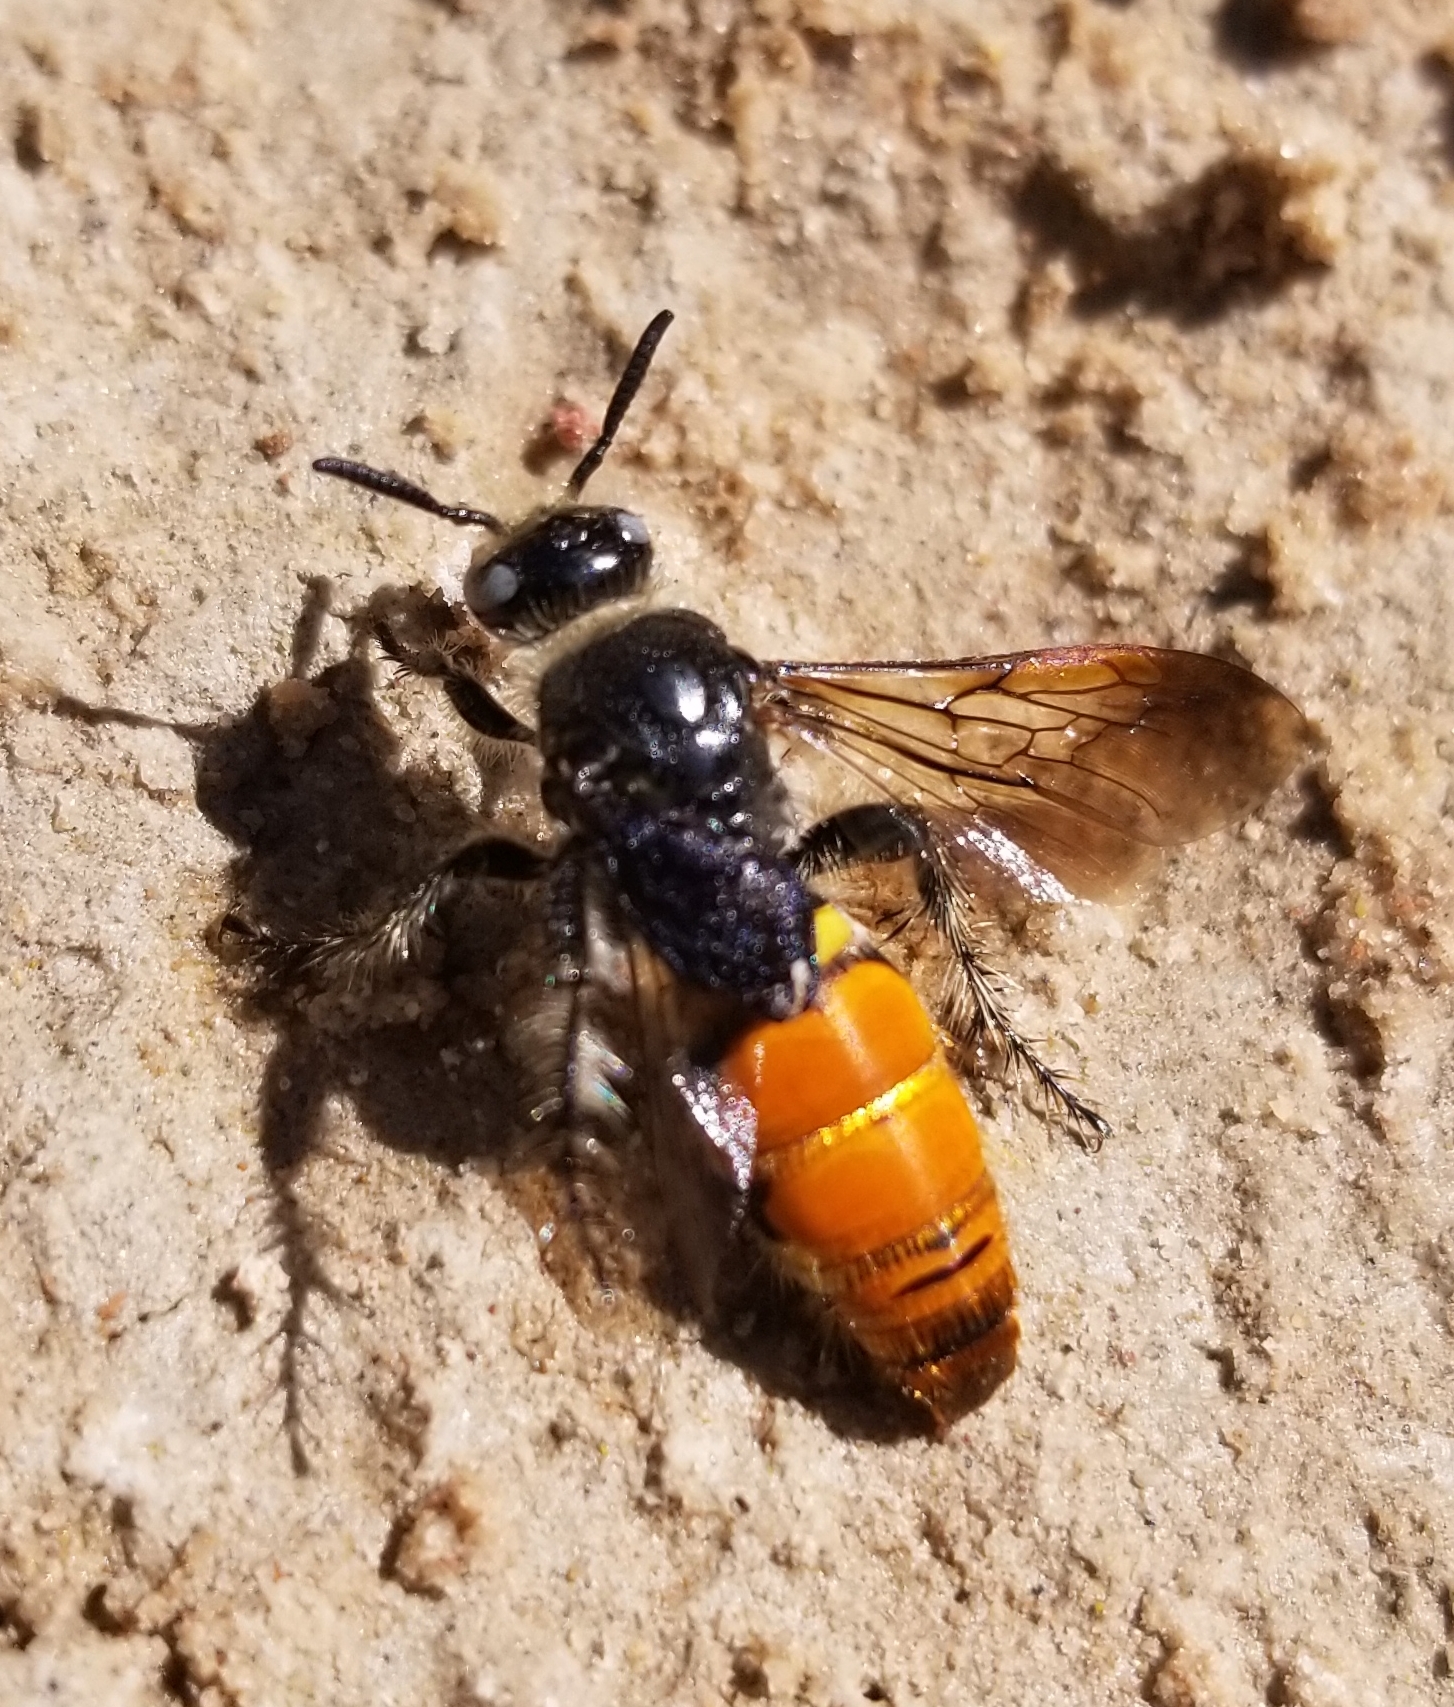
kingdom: Animalia
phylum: Arthropoda
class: Insecta
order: Hymenoptera
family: Scoliidae
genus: Dielis
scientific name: Dielis tolteca
